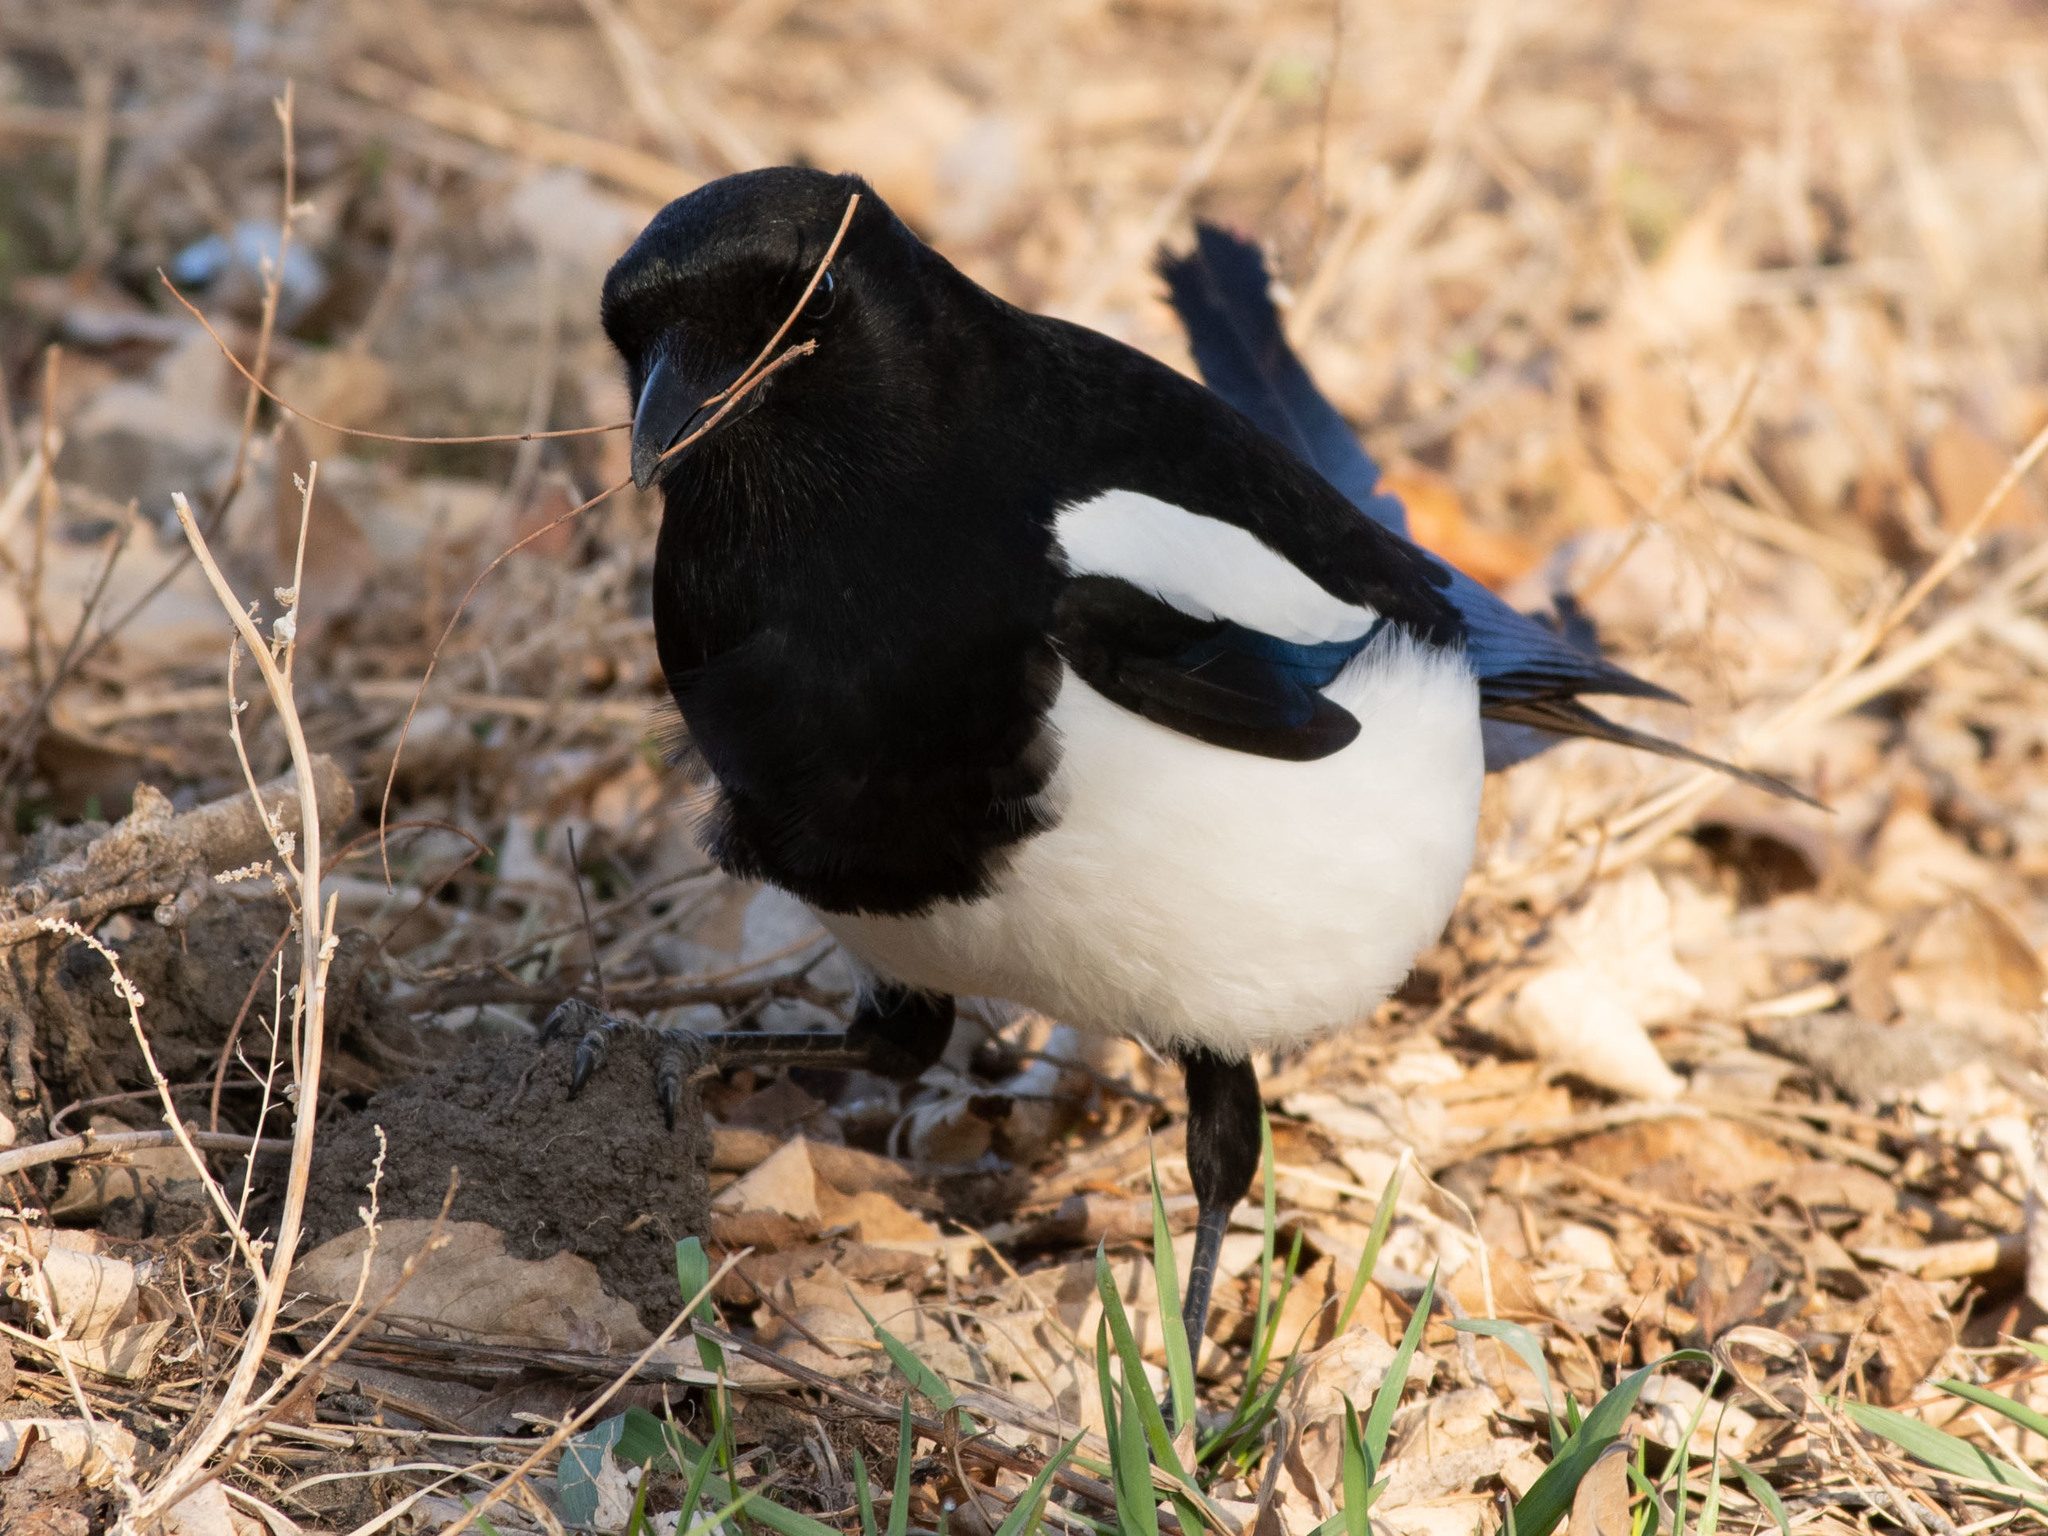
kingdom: Animalia
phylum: Chordata
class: Aves
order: Passeriformes
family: Corvidae
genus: Pica
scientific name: Pica hudsonia
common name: Black-billed magpie
